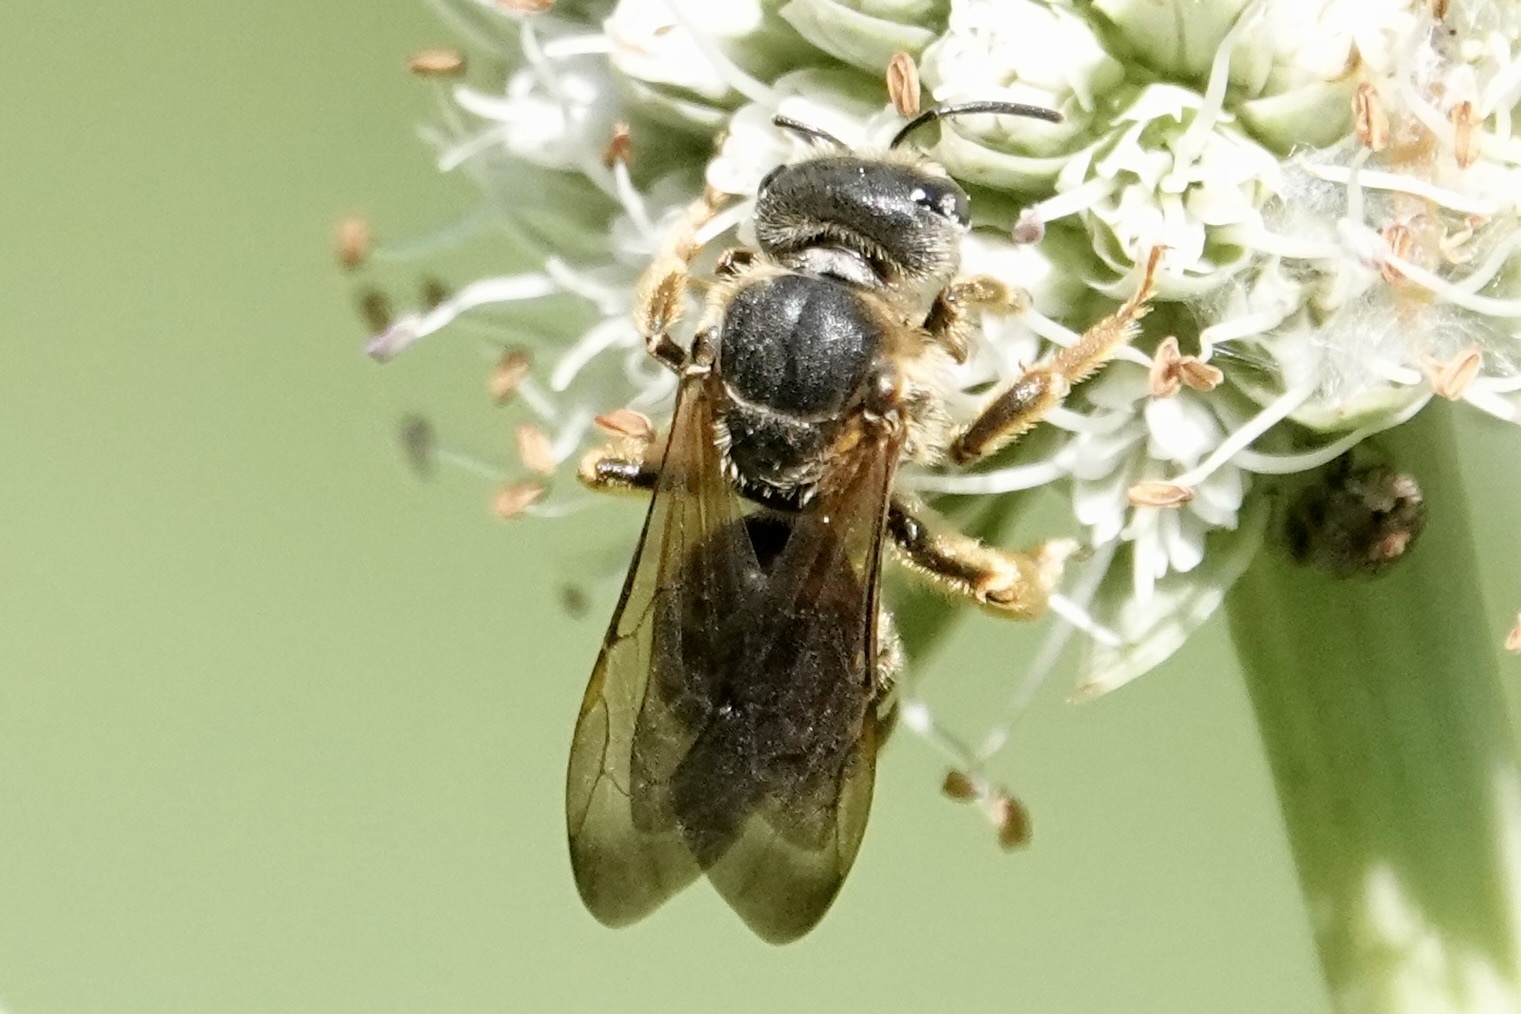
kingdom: Animalia
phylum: Arthropoda
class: Insecta
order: Hymenoptera
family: Halictidae
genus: Halictus
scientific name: Halictus parallelus
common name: Parallel-striped sweat bee
